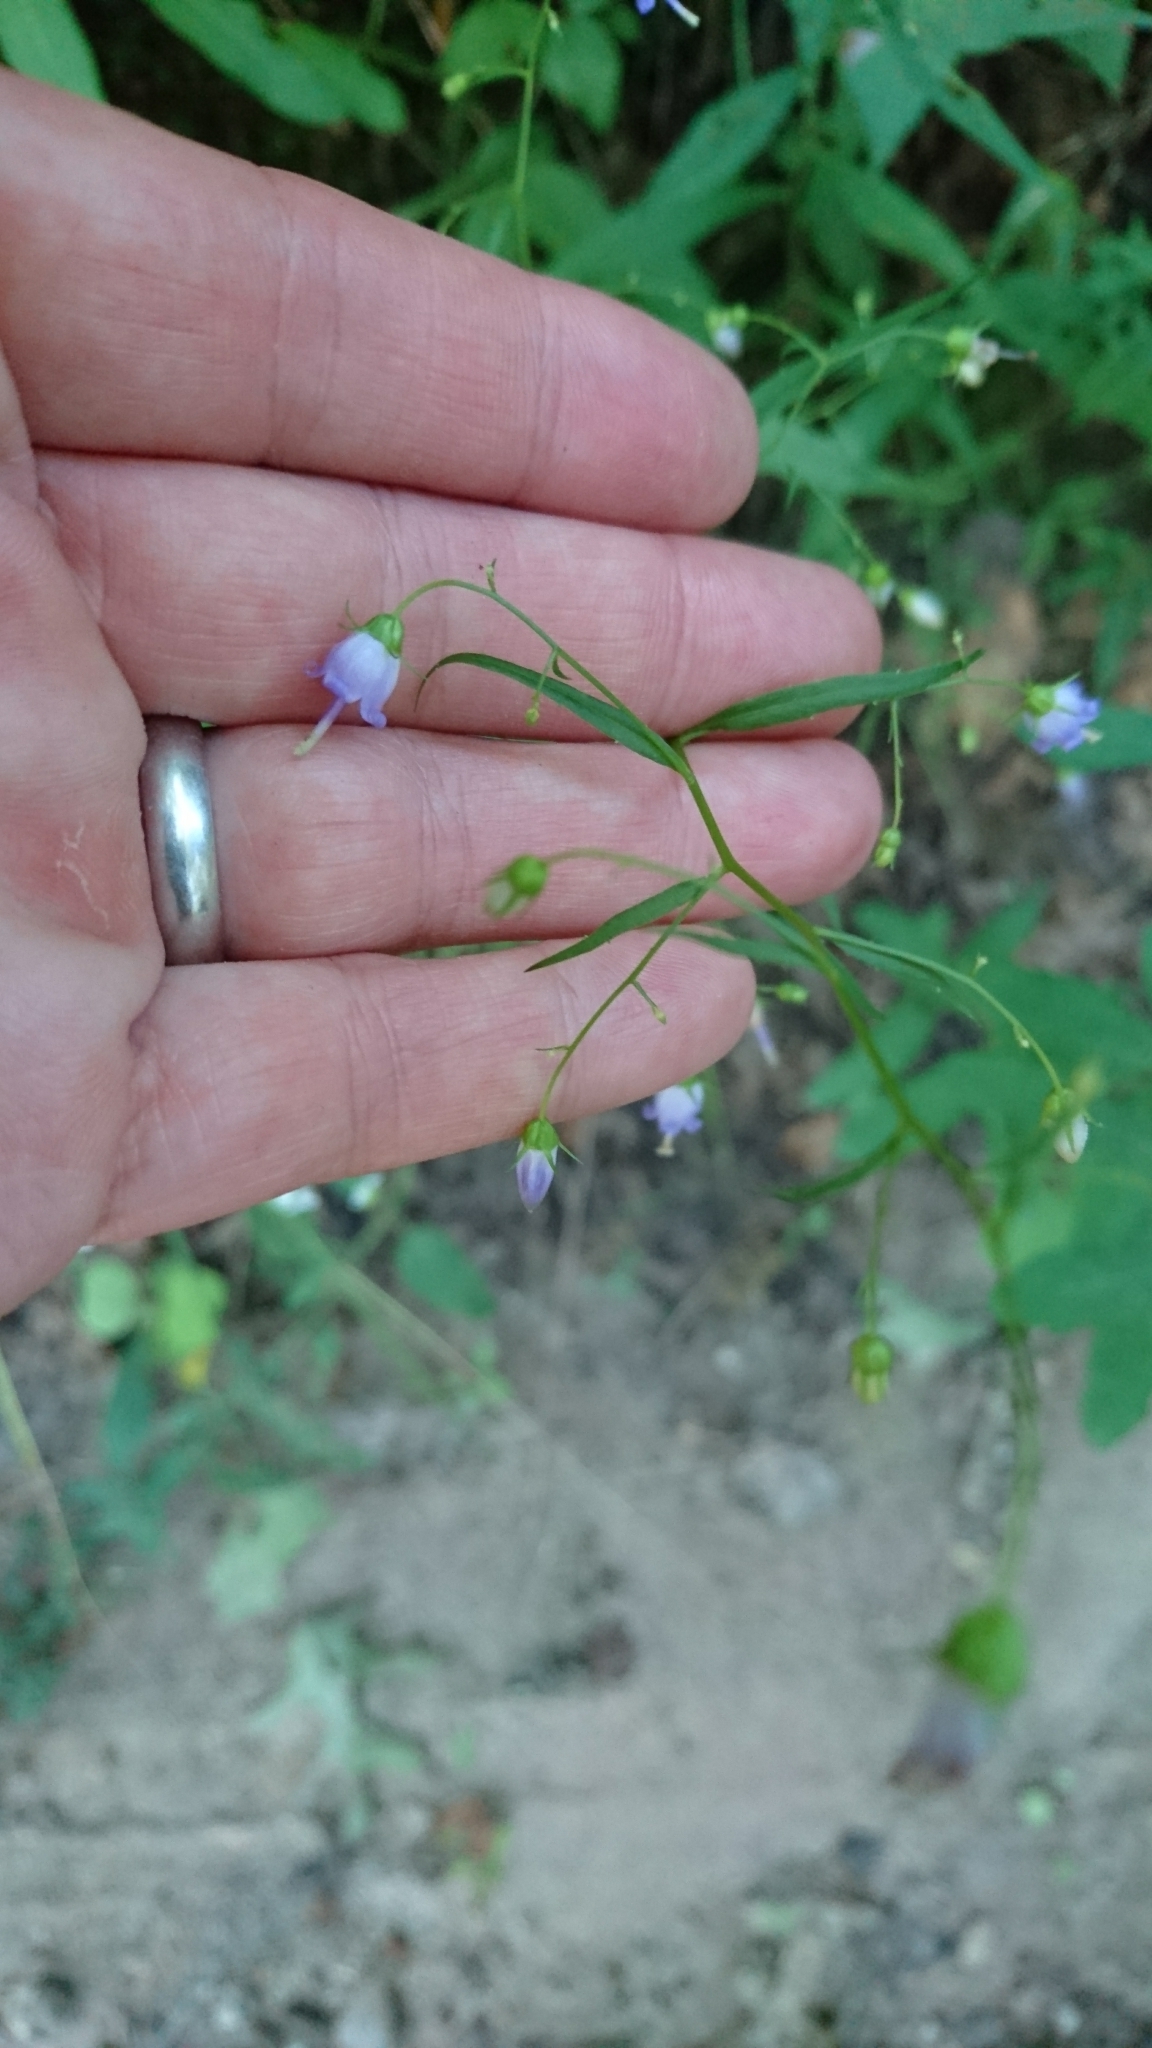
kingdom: Plantae
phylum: Tracheophyta
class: Magnoliopsida
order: Asterales
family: Campanulaceae
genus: Campanula
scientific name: Campanula divaricata
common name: Appalachian bellflower
